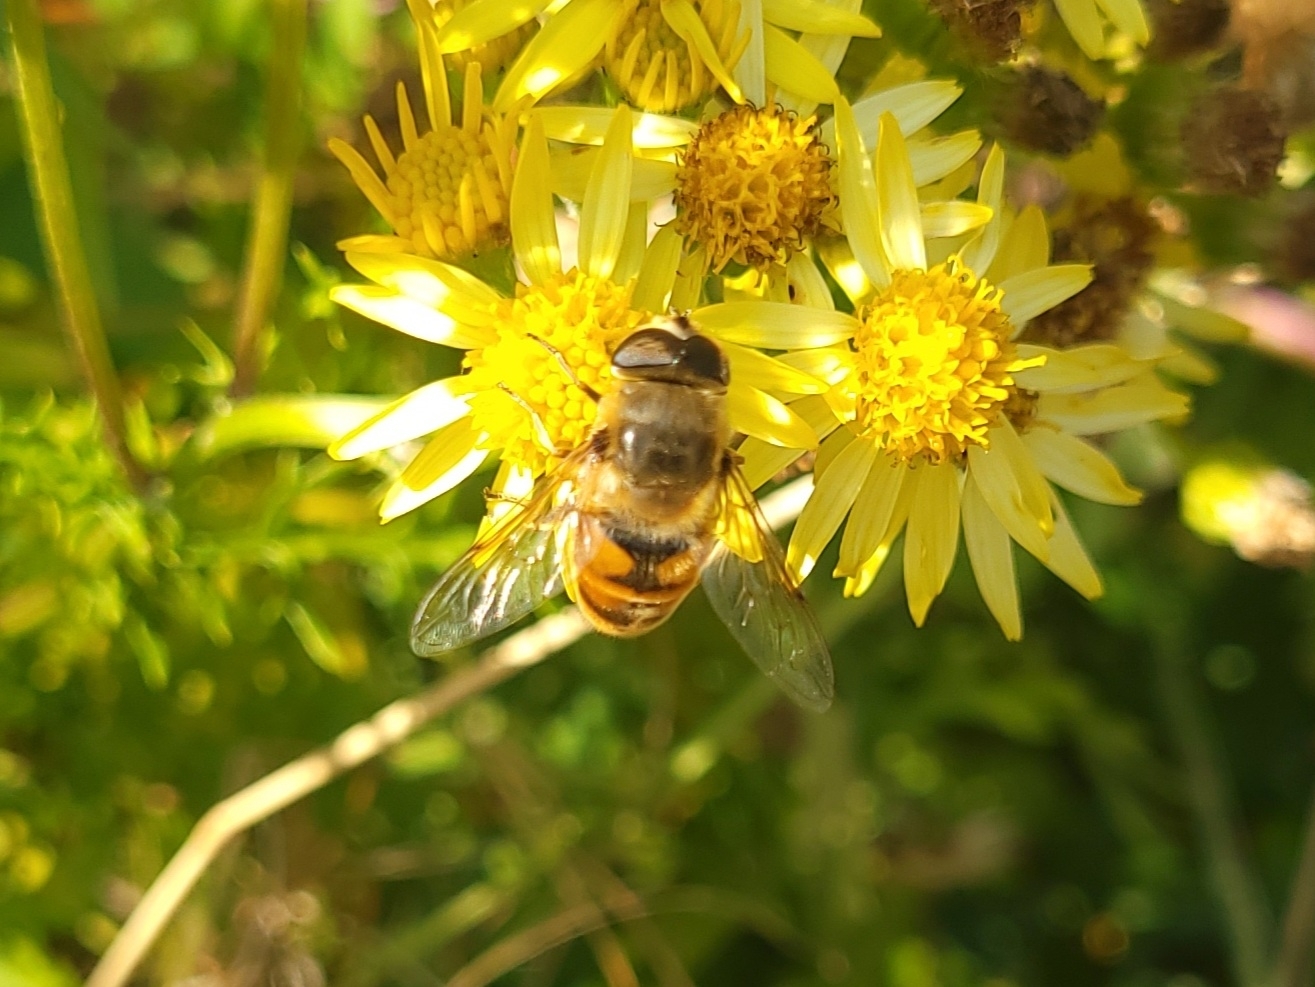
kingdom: Animalia
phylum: Arthropoda
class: Insecta
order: Diptera
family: Syrphidae
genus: Eristalis
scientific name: Eristalis tenax
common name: Drone fly
